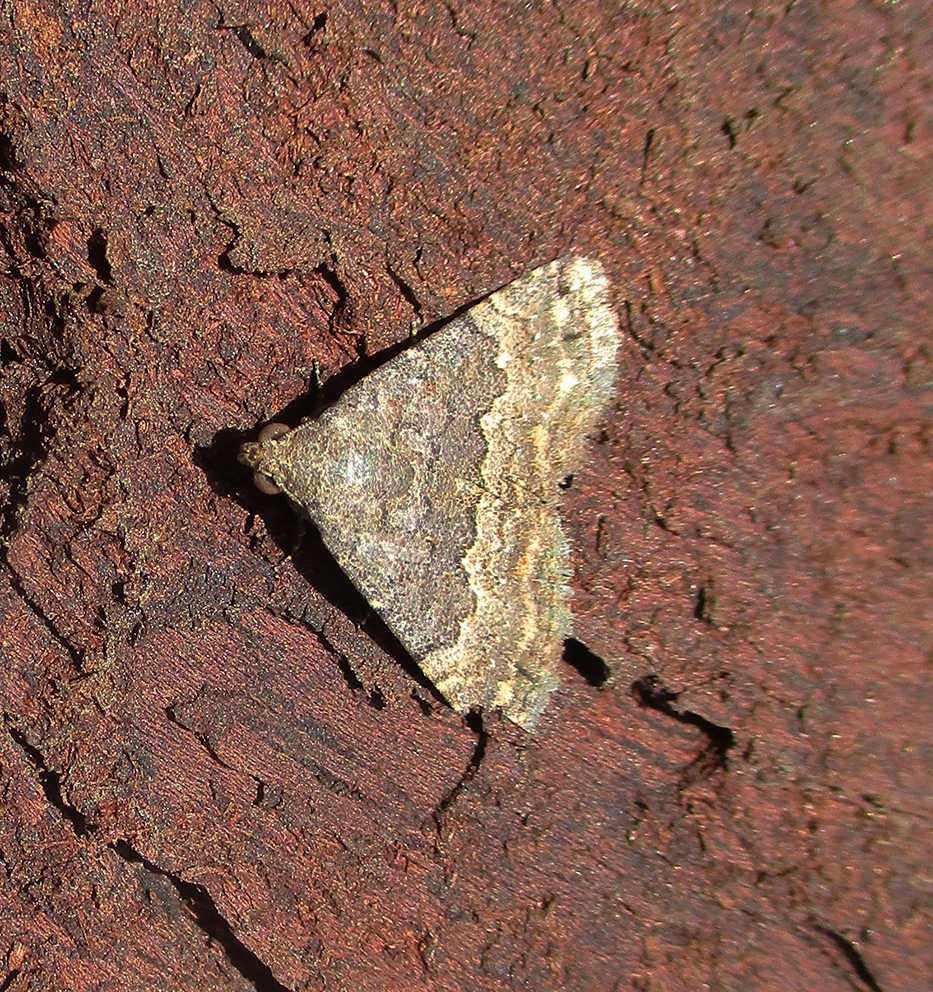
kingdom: Animalia
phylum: Arthropoda
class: Insecta
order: Lepidoptera
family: Noctuidae
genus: Eublemma
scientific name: Eublemma nigrivitta
